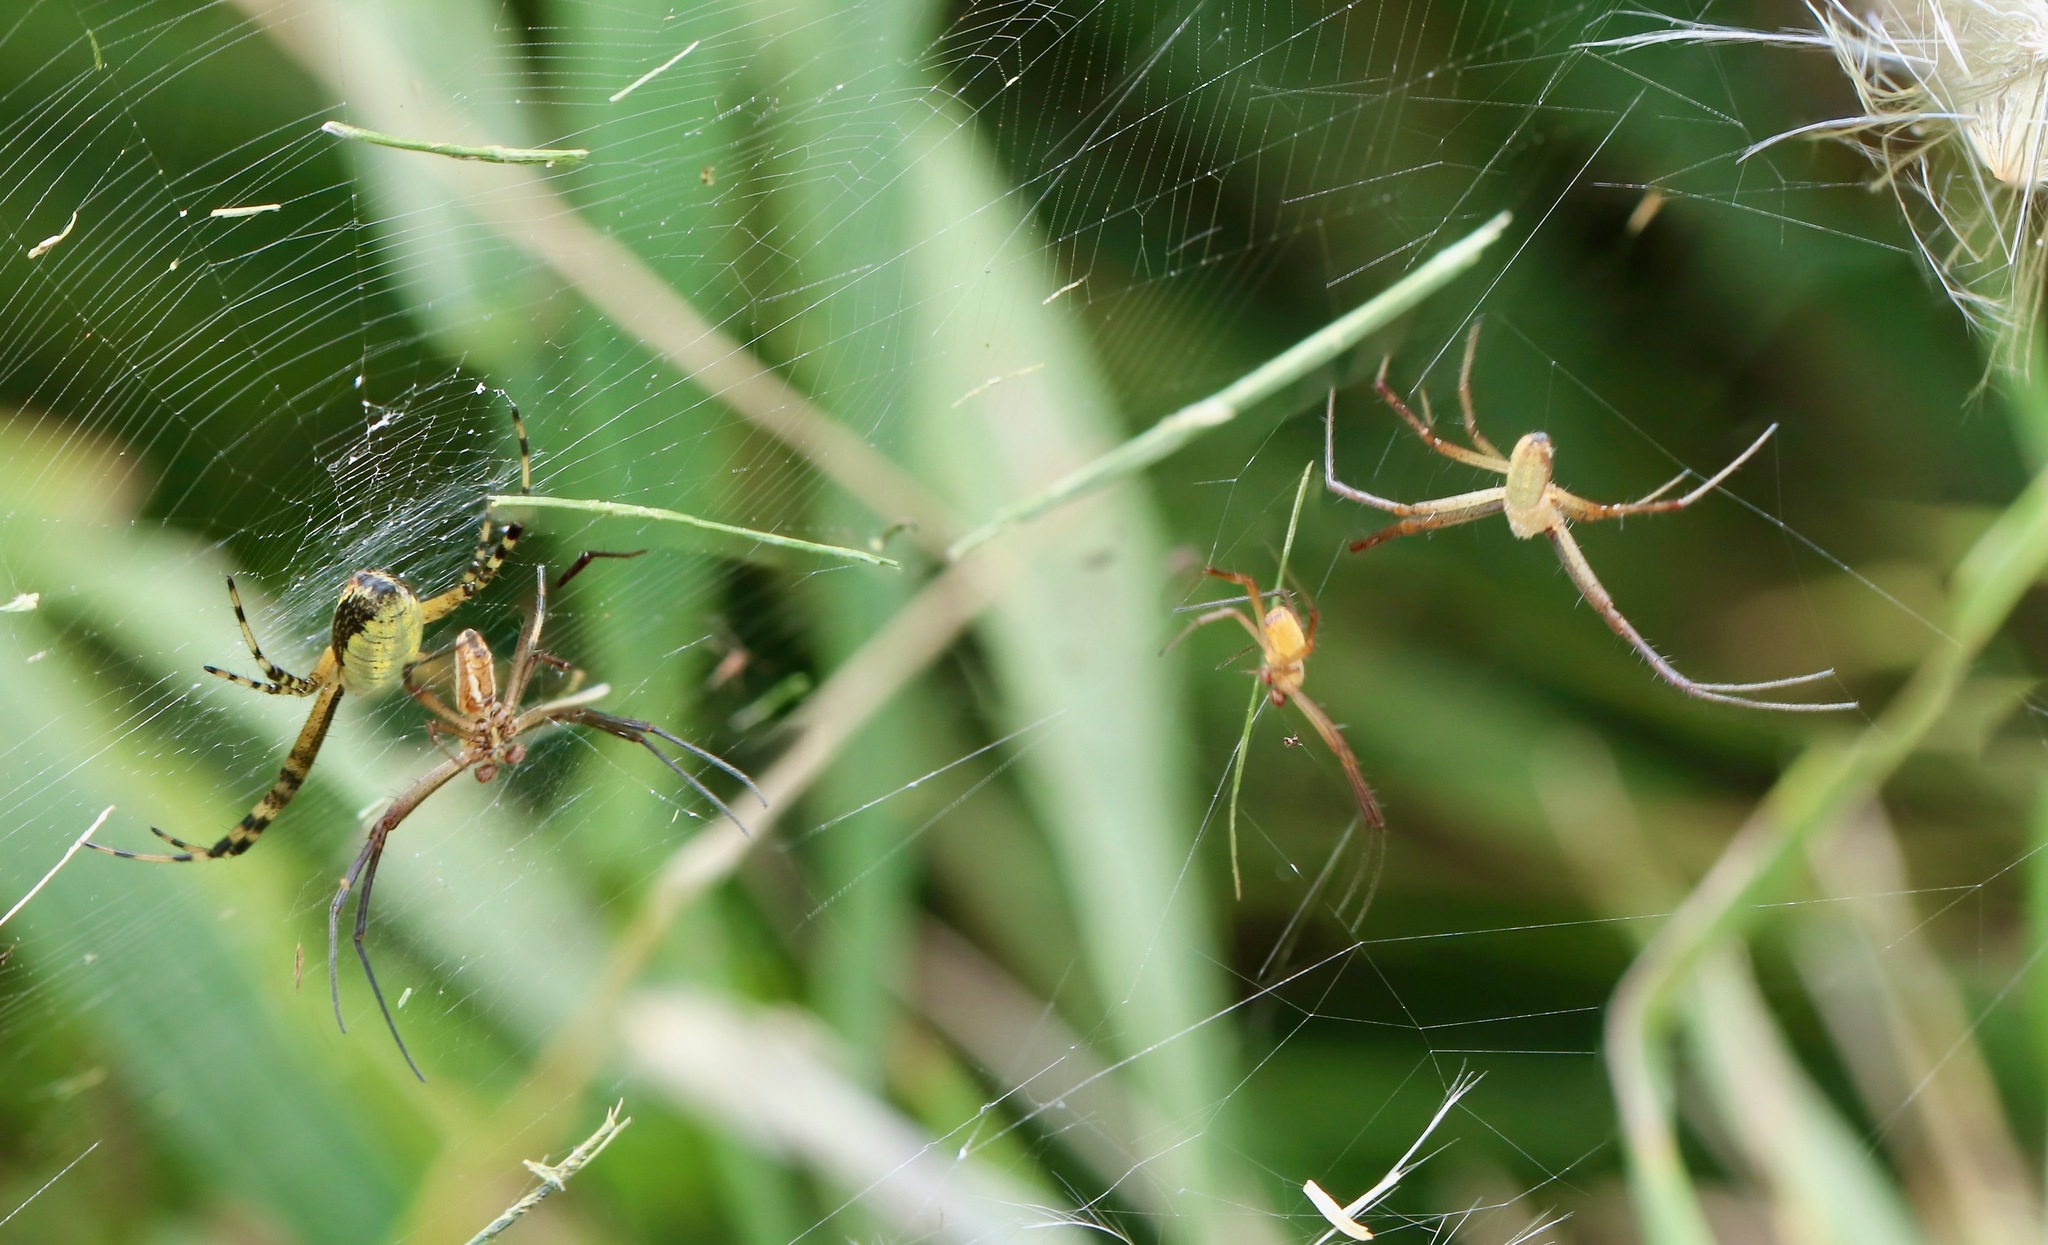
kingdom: Animalia
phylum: Arthropoda
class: Arachnida
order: Araneae
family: Araneidae
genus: Argiope
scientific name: Argiope trifasciata
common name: Banded garden spider
